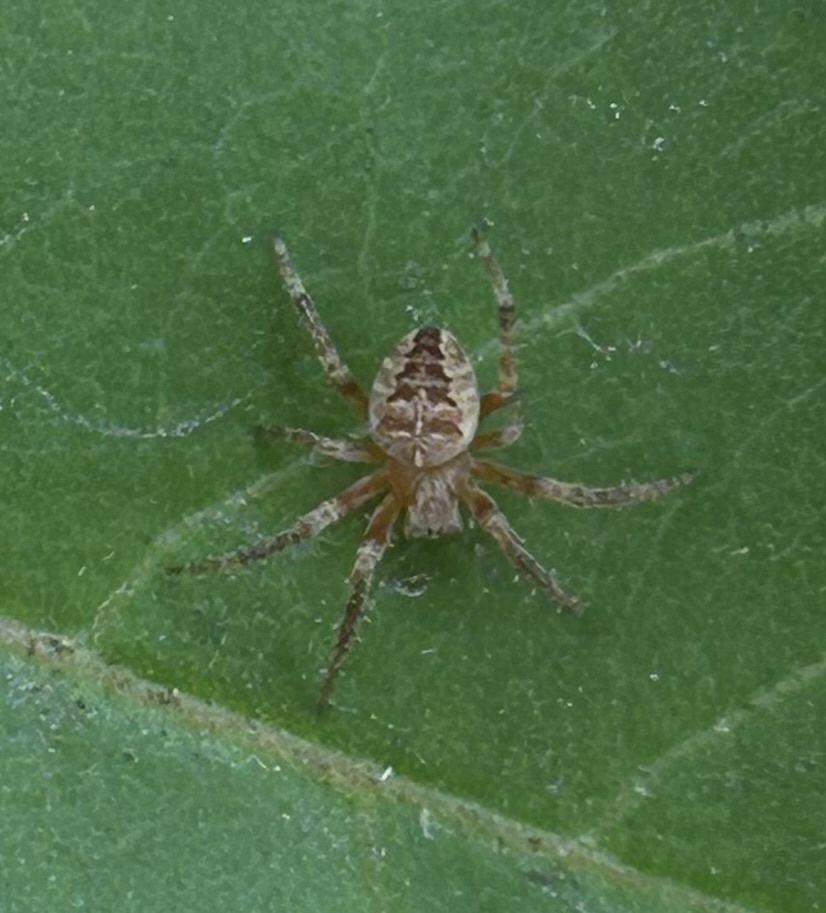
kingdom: Animalia
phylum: Arthropoda
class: Arachnida
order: Araneae
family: Araneidae
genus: Araneus
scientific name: Araneus diadematus
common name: Cross orbweaver
